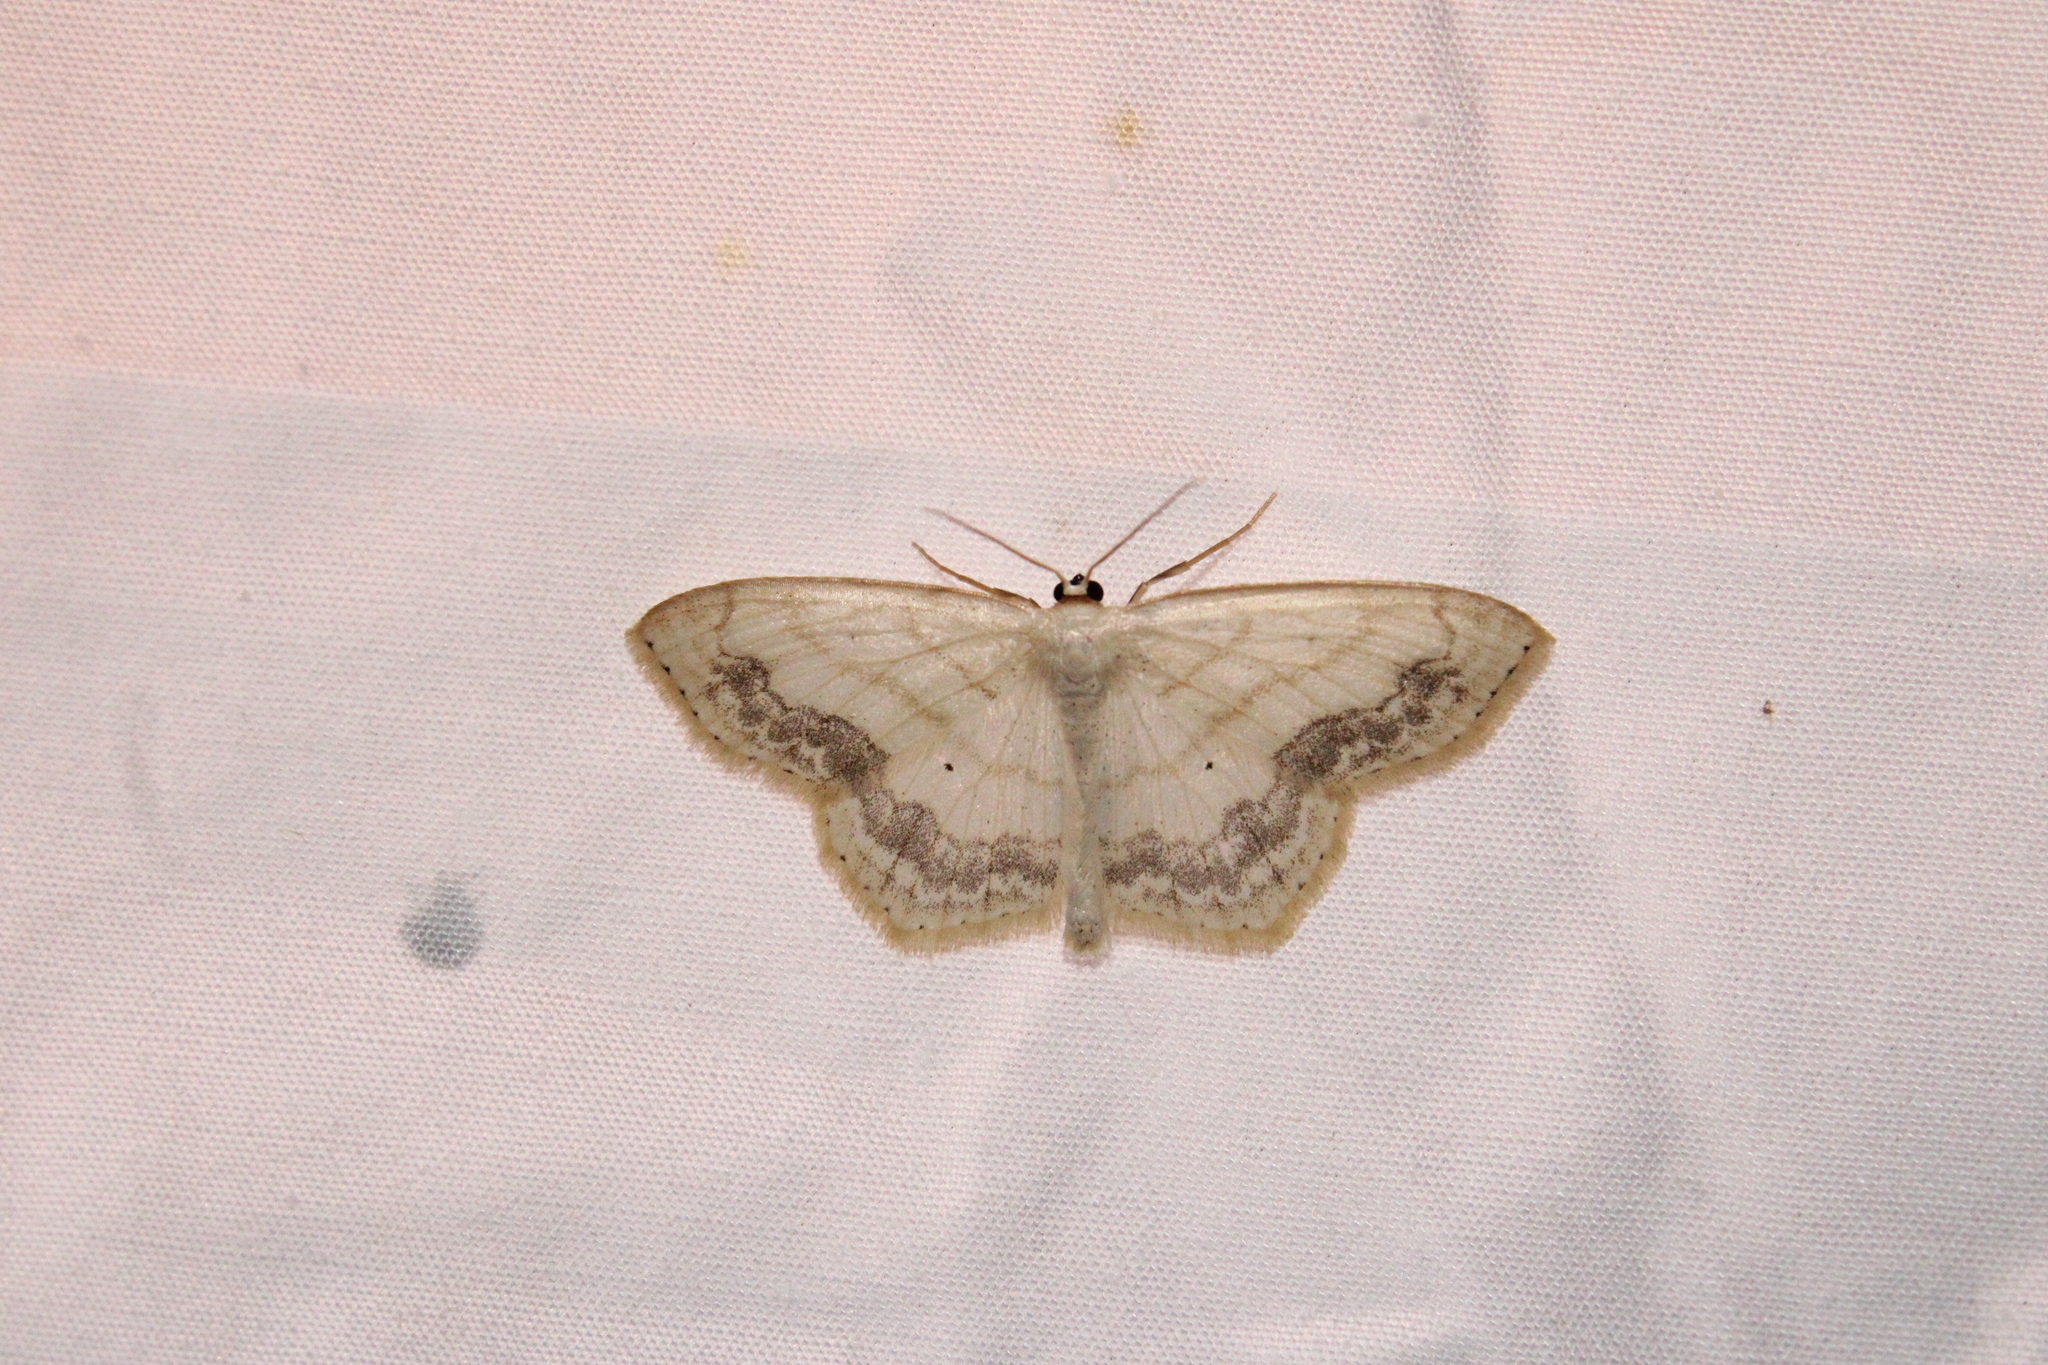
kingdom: Animalia
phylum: Arthropoda
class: Insecta
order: Lepidoptera
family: Geometridae
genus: Scopula
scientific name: Scopula limboundata
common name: Large lace border
